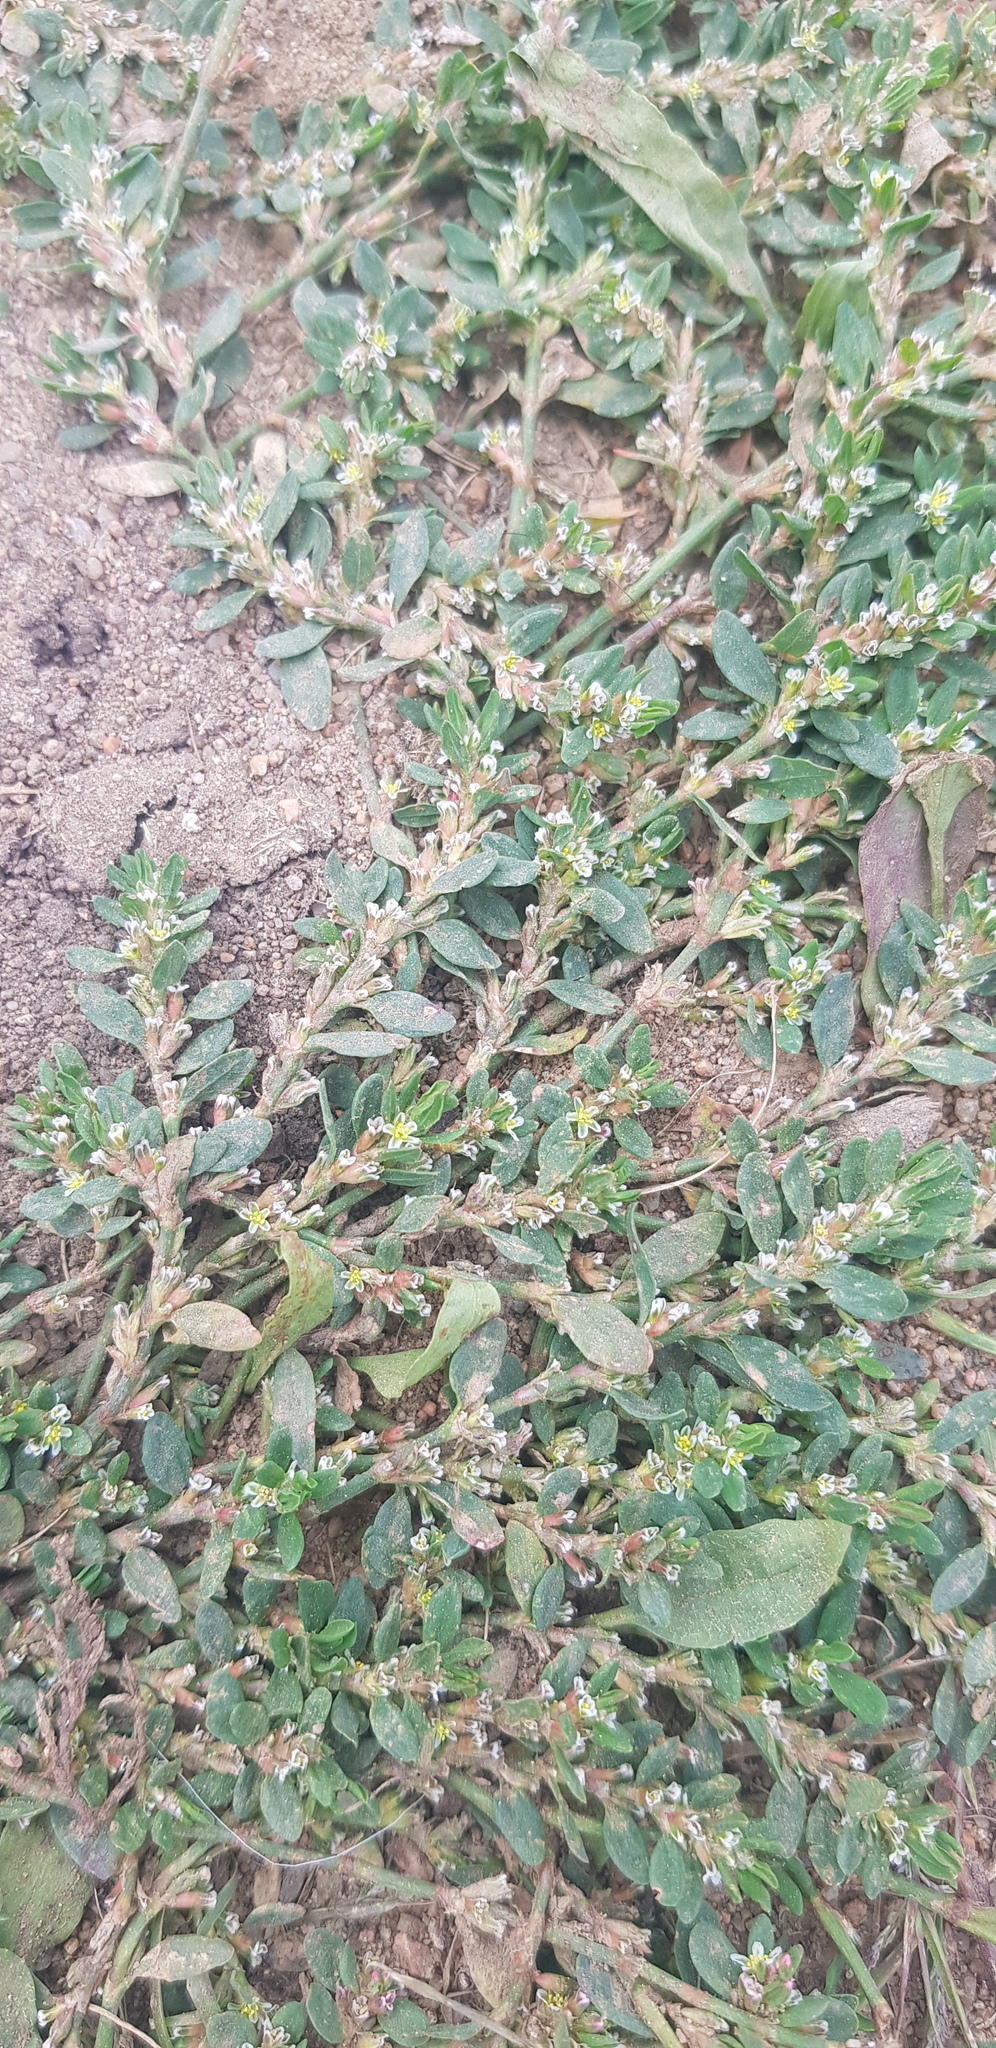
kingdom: Plantae
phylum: Tracheophyta
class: Magnoliopsida
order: Caryophyllales
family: Polygonaceae
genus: Polygonum
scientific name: Polygonum aviculare
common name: Prostrate knotweed
